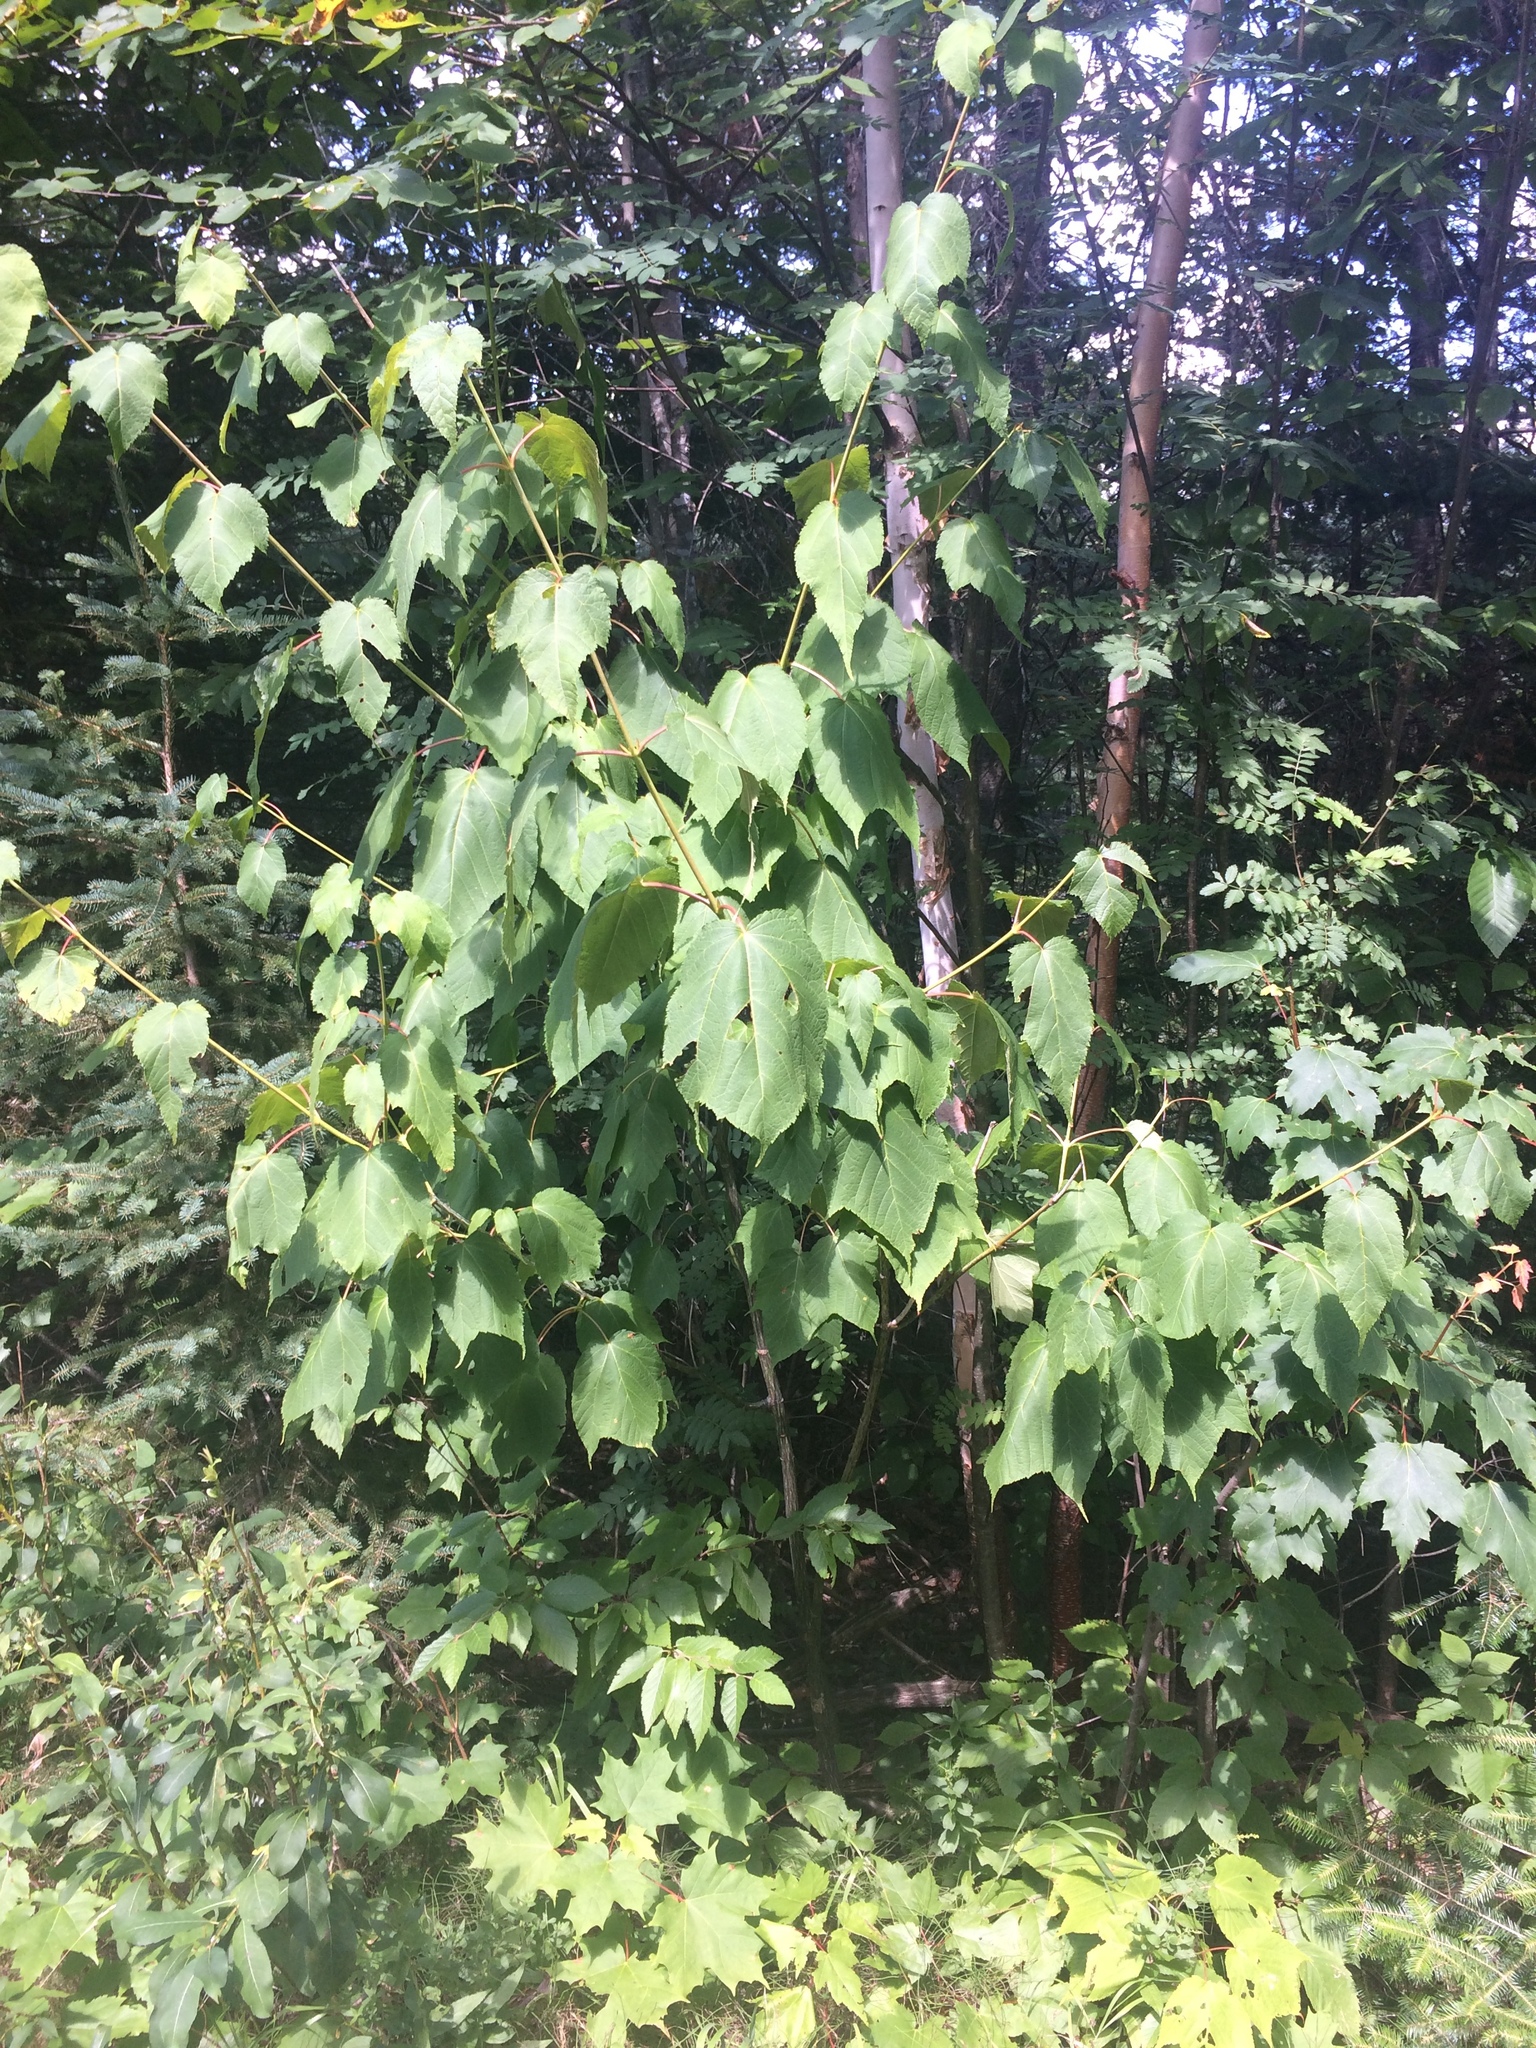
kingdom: Plantae
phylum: Tracheophyta
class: Magnoliopsida
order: Sapindales
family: Sapindaceae
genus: Acer
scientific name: Acer pensylvanicum
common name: Moosewood
